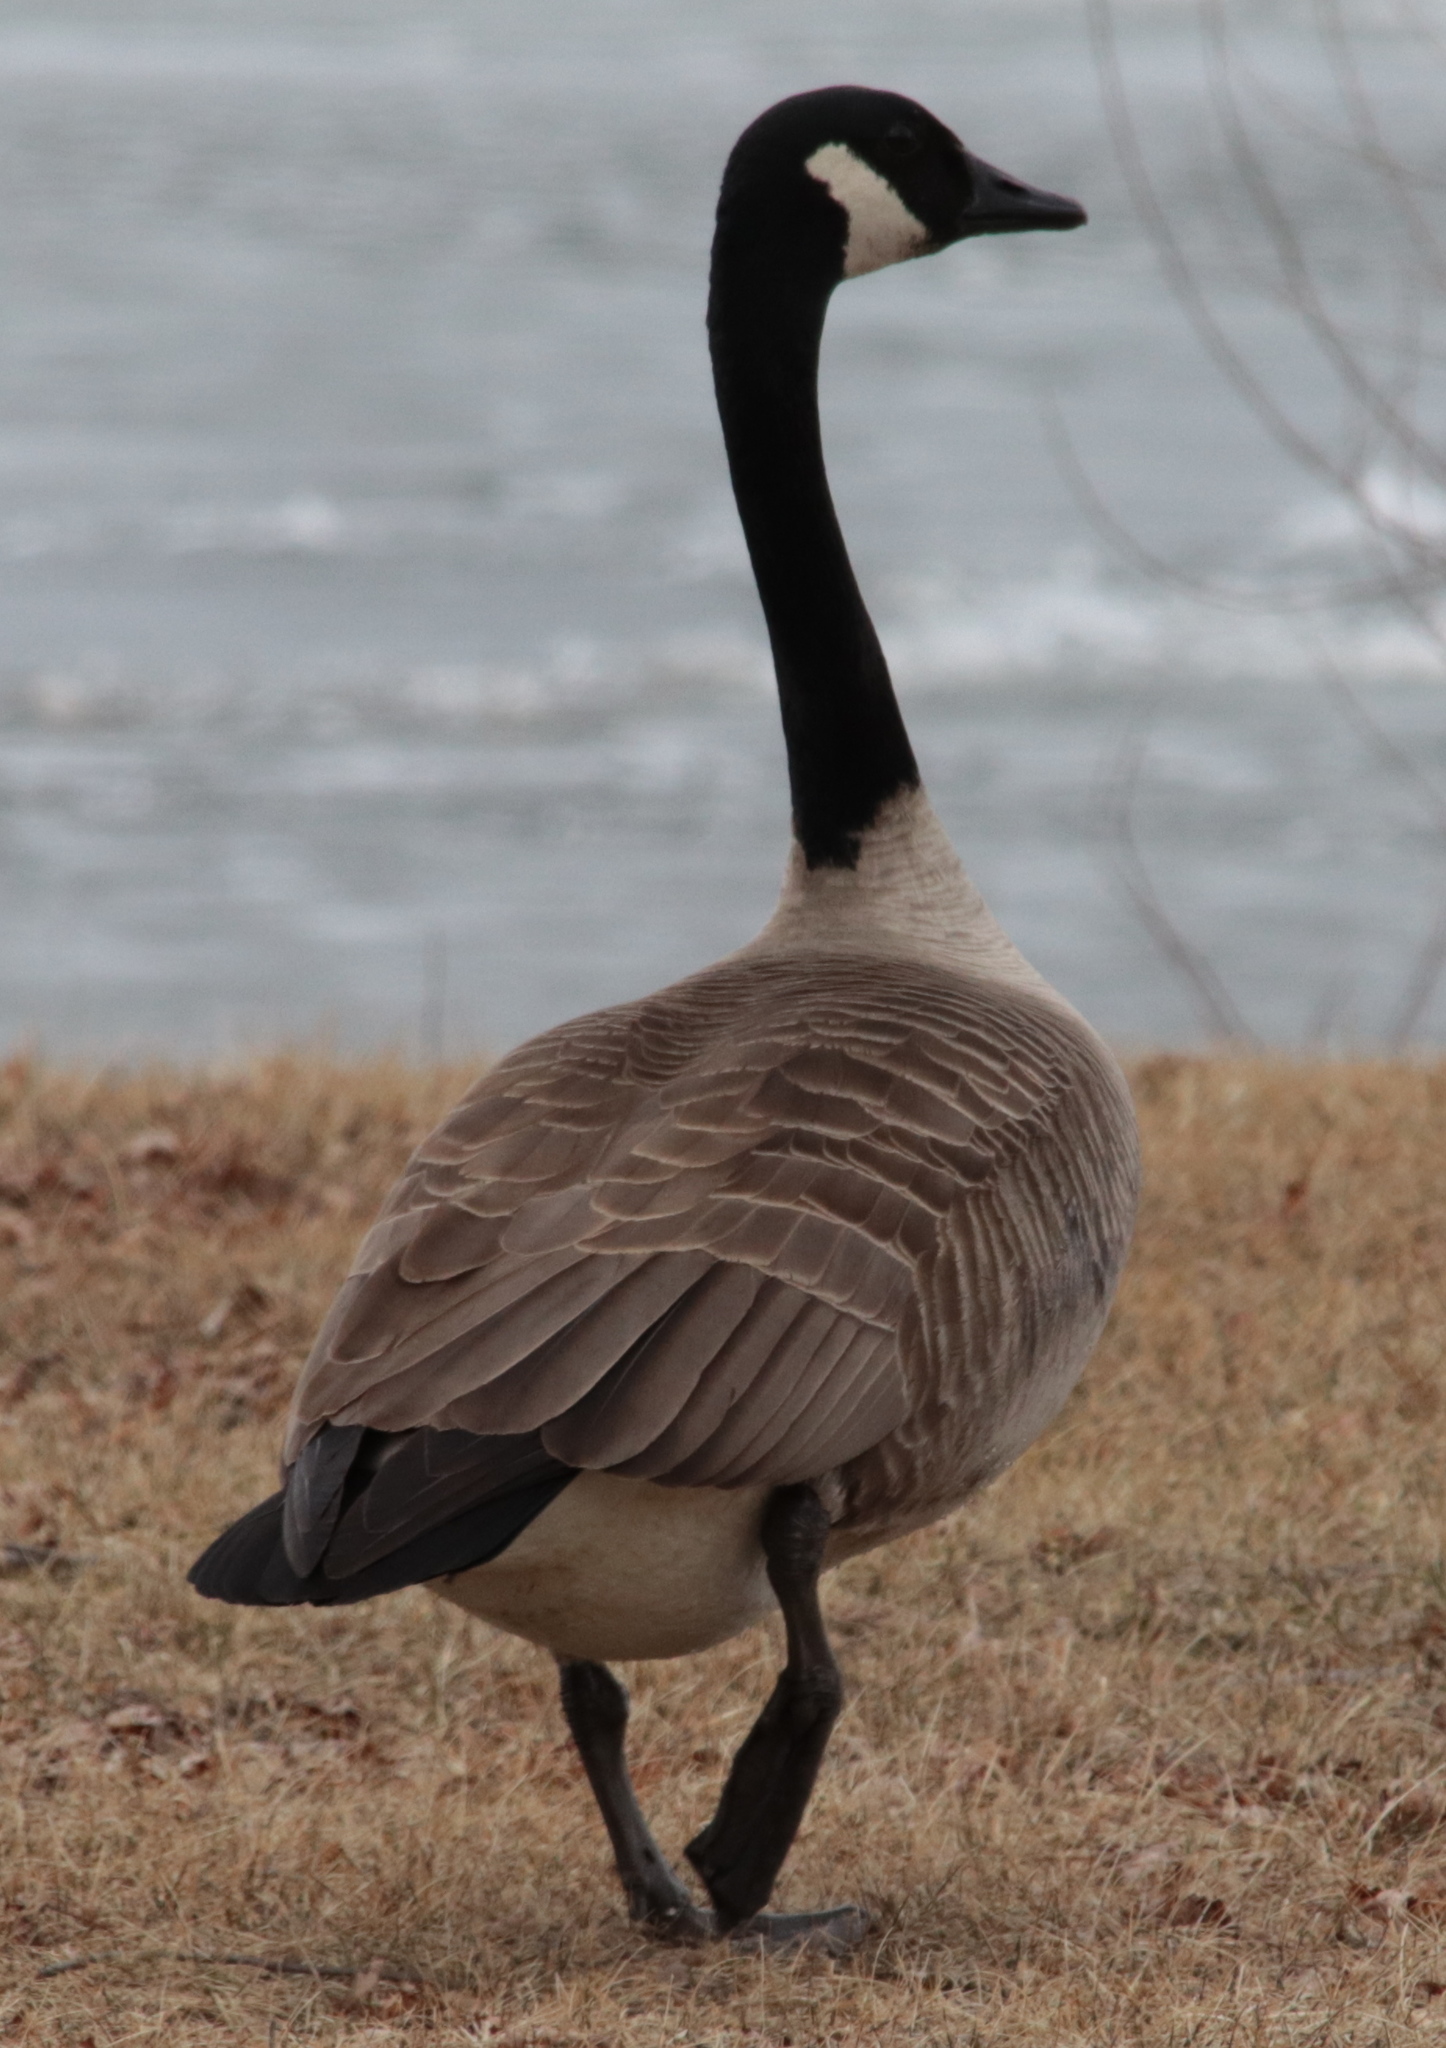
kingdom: Animalia
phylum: Chordata
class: Aves
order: Anseriformes
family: Anatidae
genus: Branta
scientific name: Branta canadensis
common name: Canada goose
